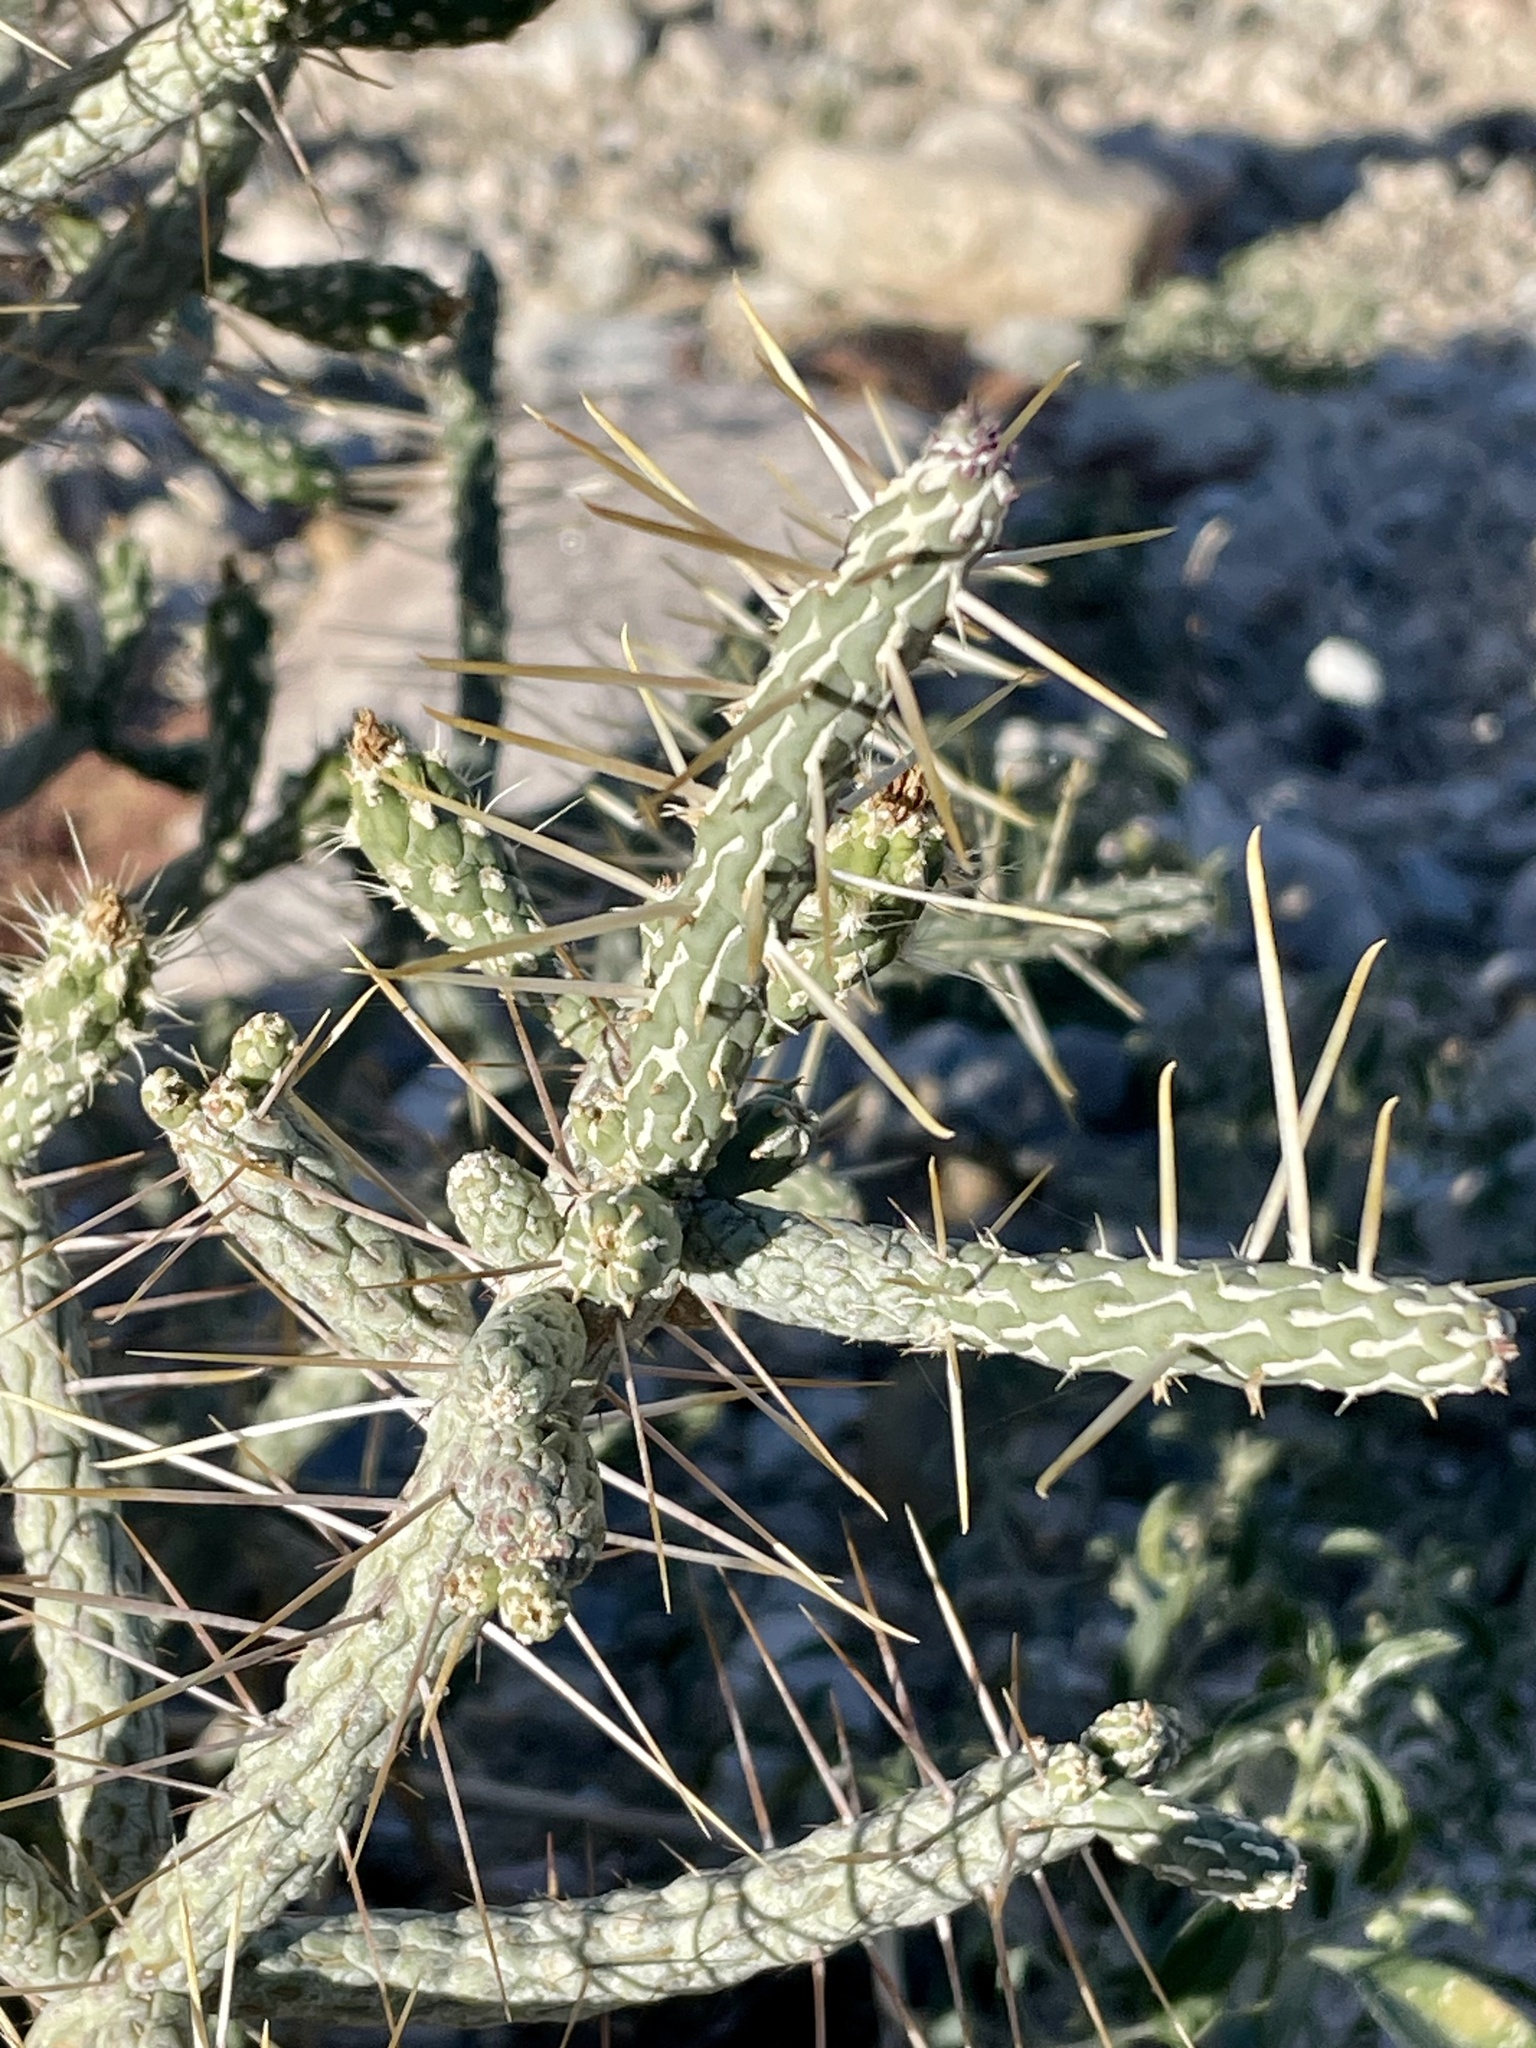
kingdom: Plantae
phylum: Tracheophyta
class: Magnoliopsida
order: Caryophyllales
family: Cactaceae
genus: Cylindropuntia
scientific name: Cylindropuntia ramosissima
